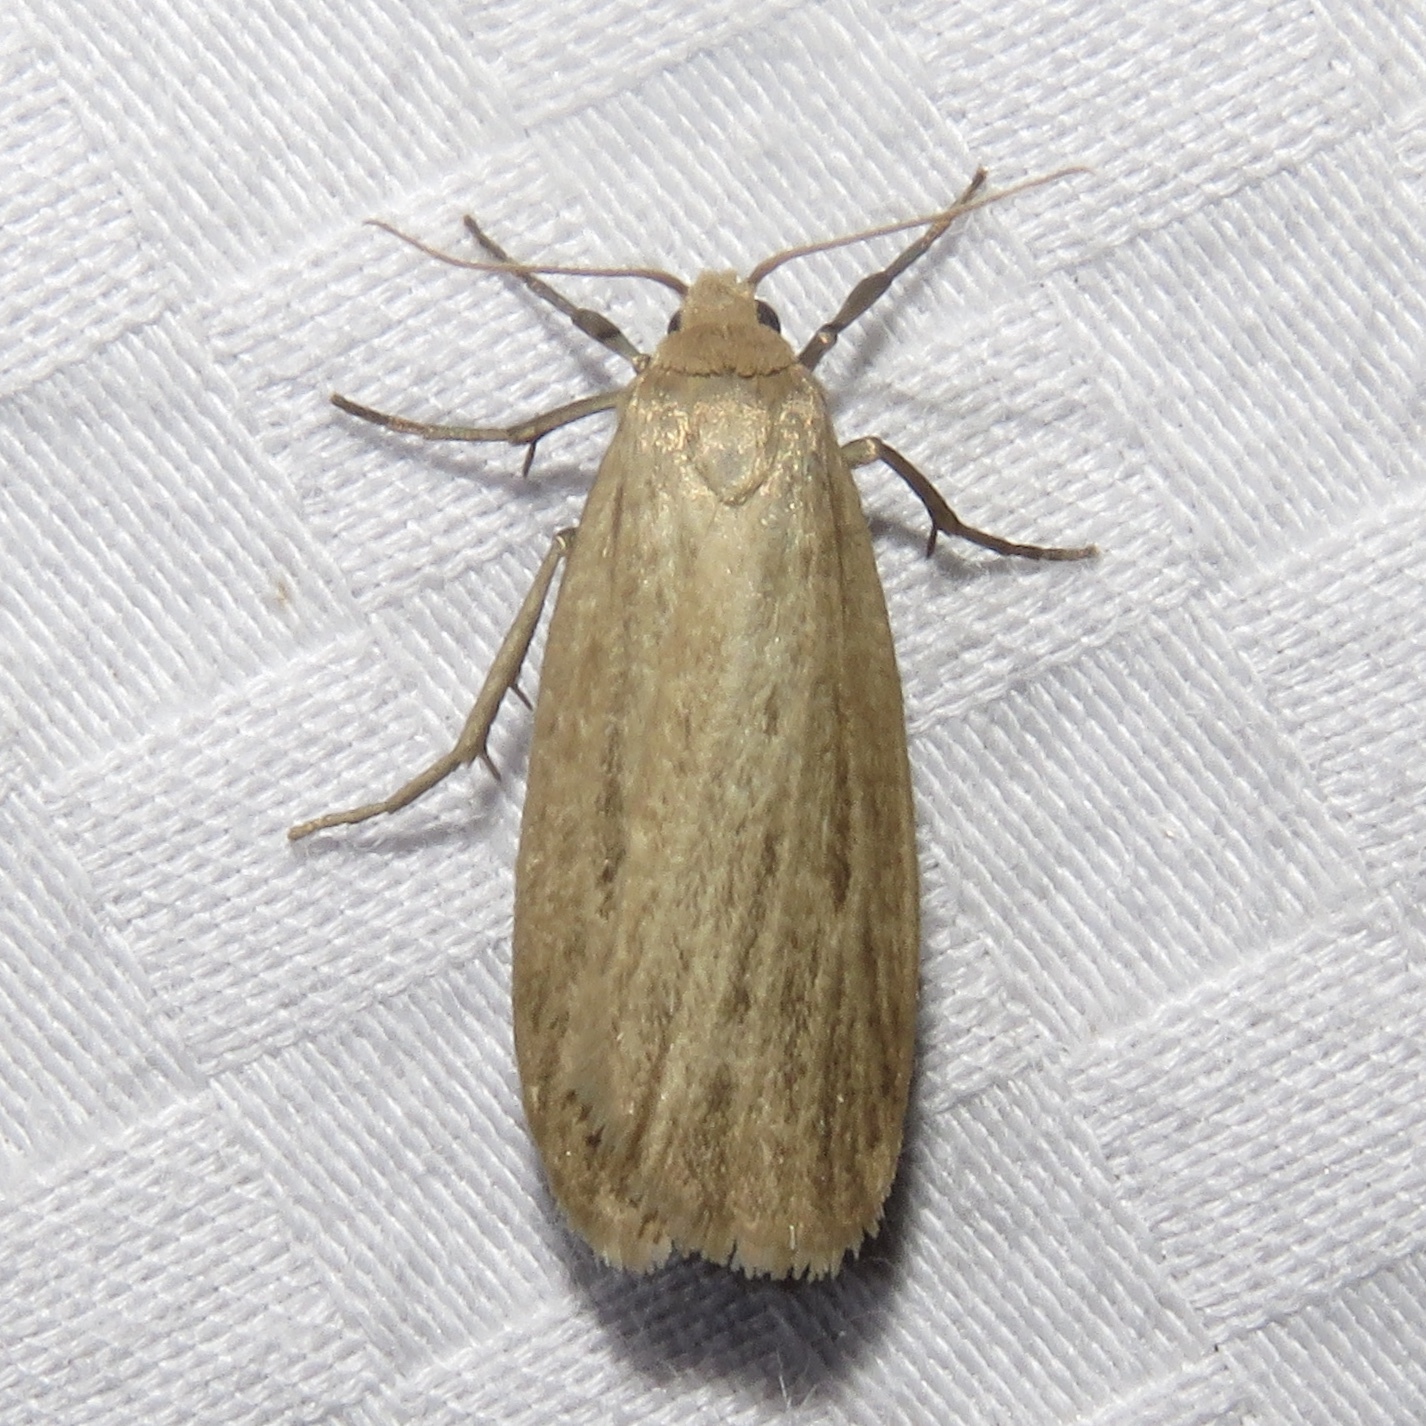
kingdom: Animalia
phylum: Arthropoda
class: Insecta
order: Lepidoptera
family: Erebidae
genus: Crambidia
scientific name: Crambidia pallida
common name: Pale lichen moth
